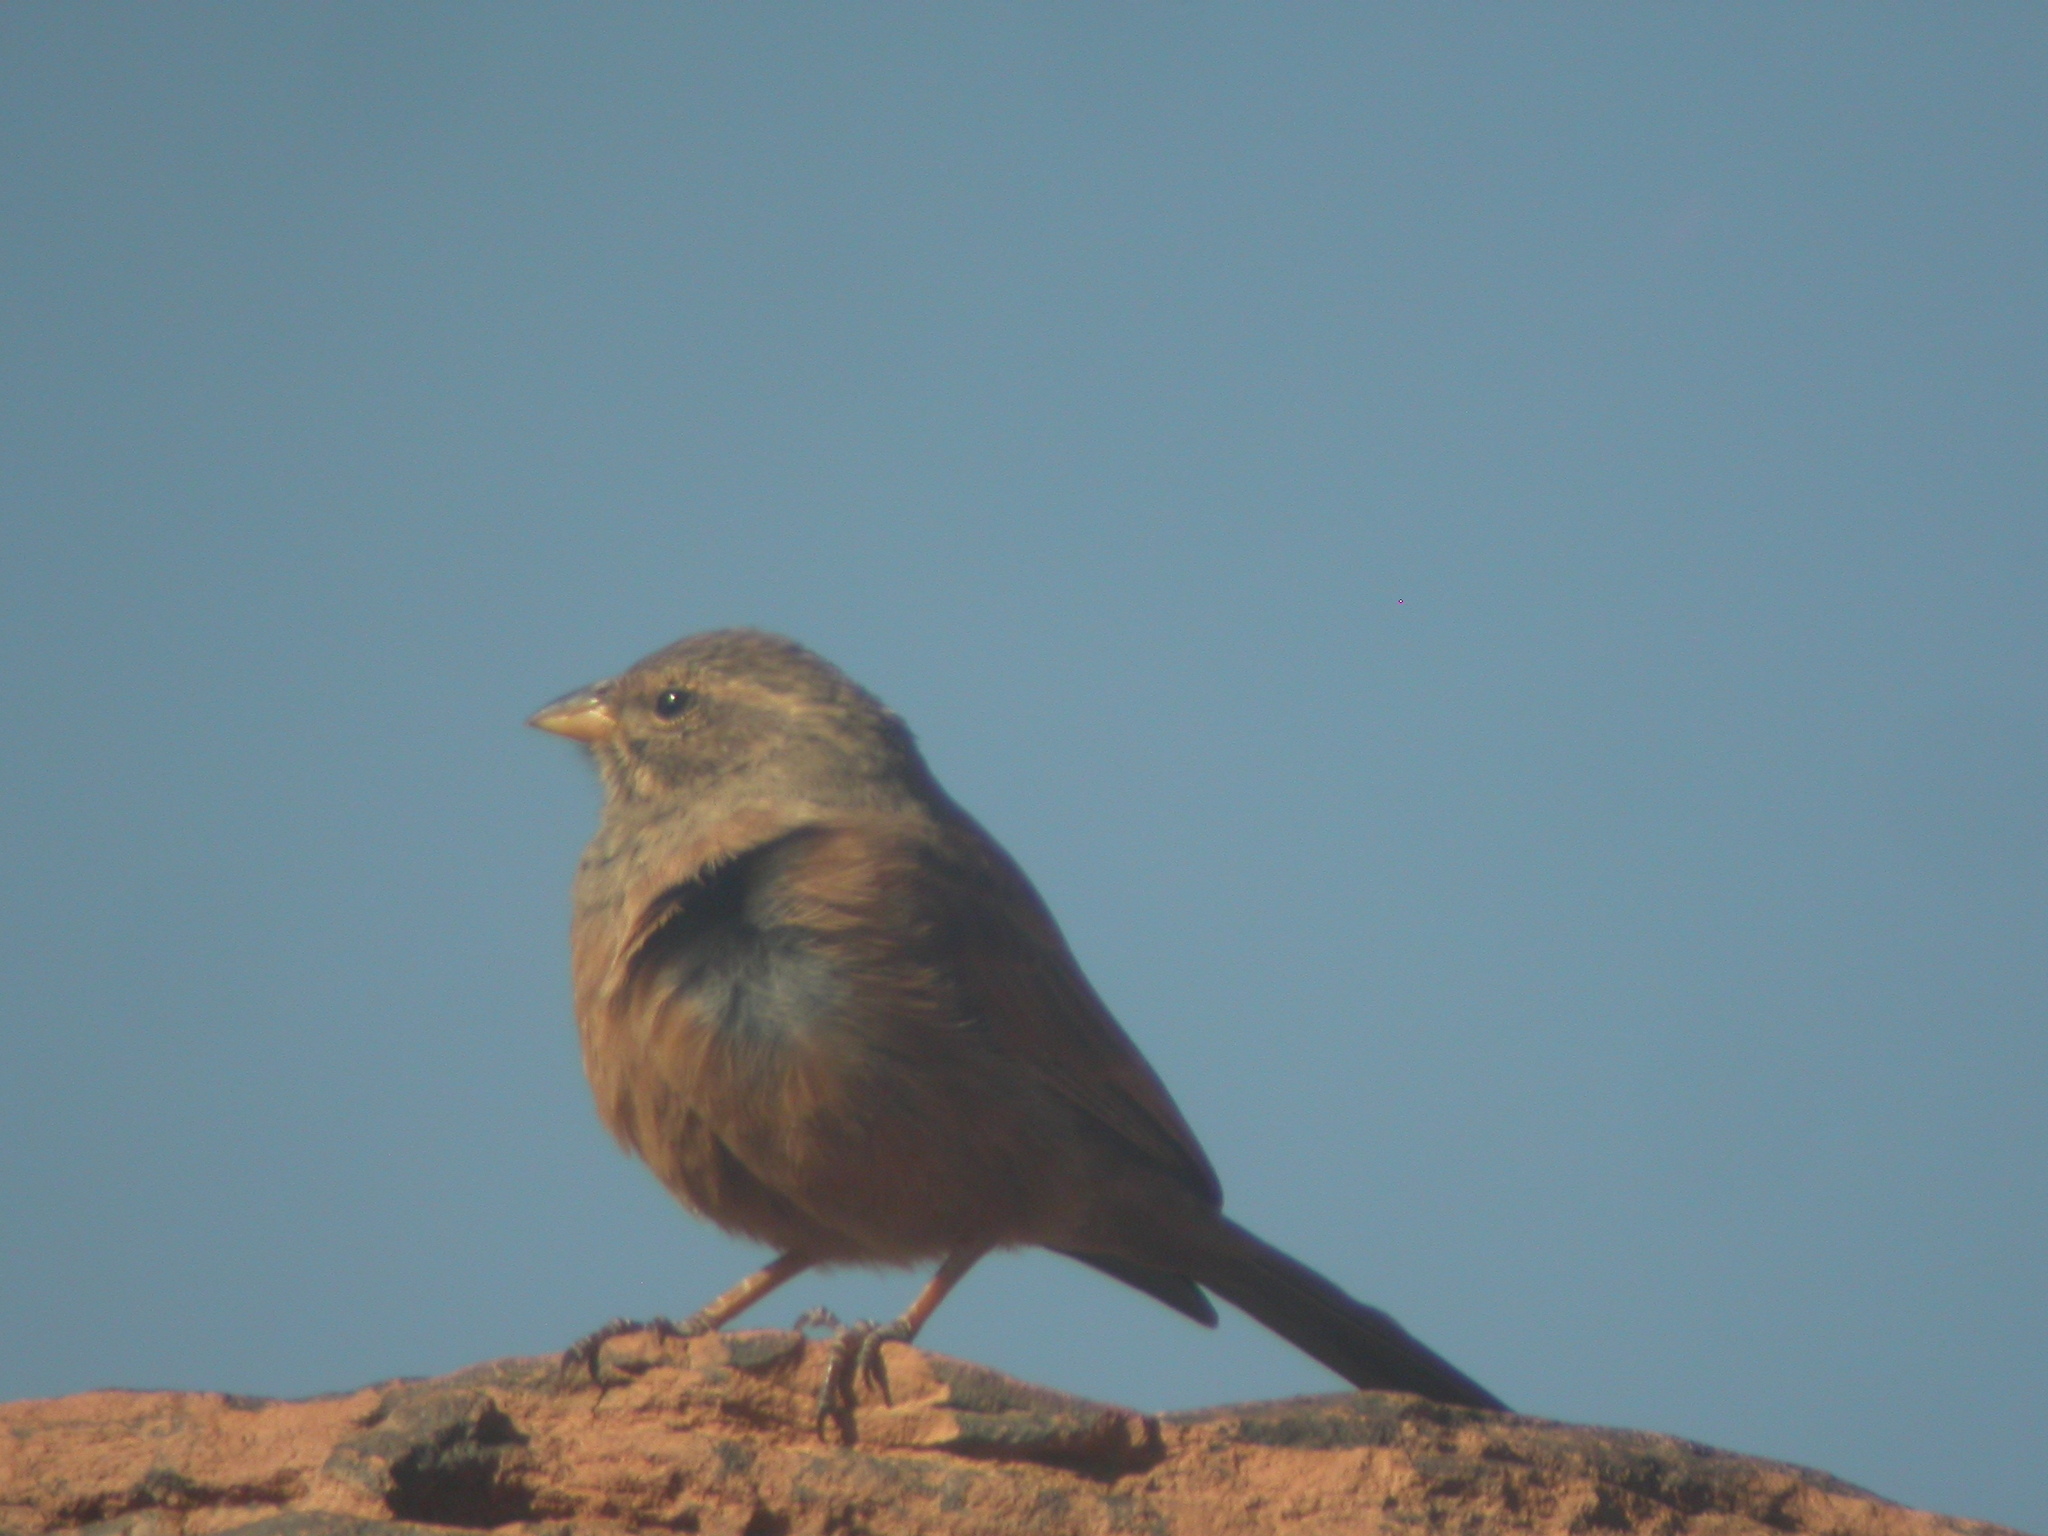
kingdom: Animalia
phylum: Chordata
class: Aves
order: Passeriformes
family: Emberizidae
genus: Emberiza
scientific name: Emberiza sahari
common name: House bunting
